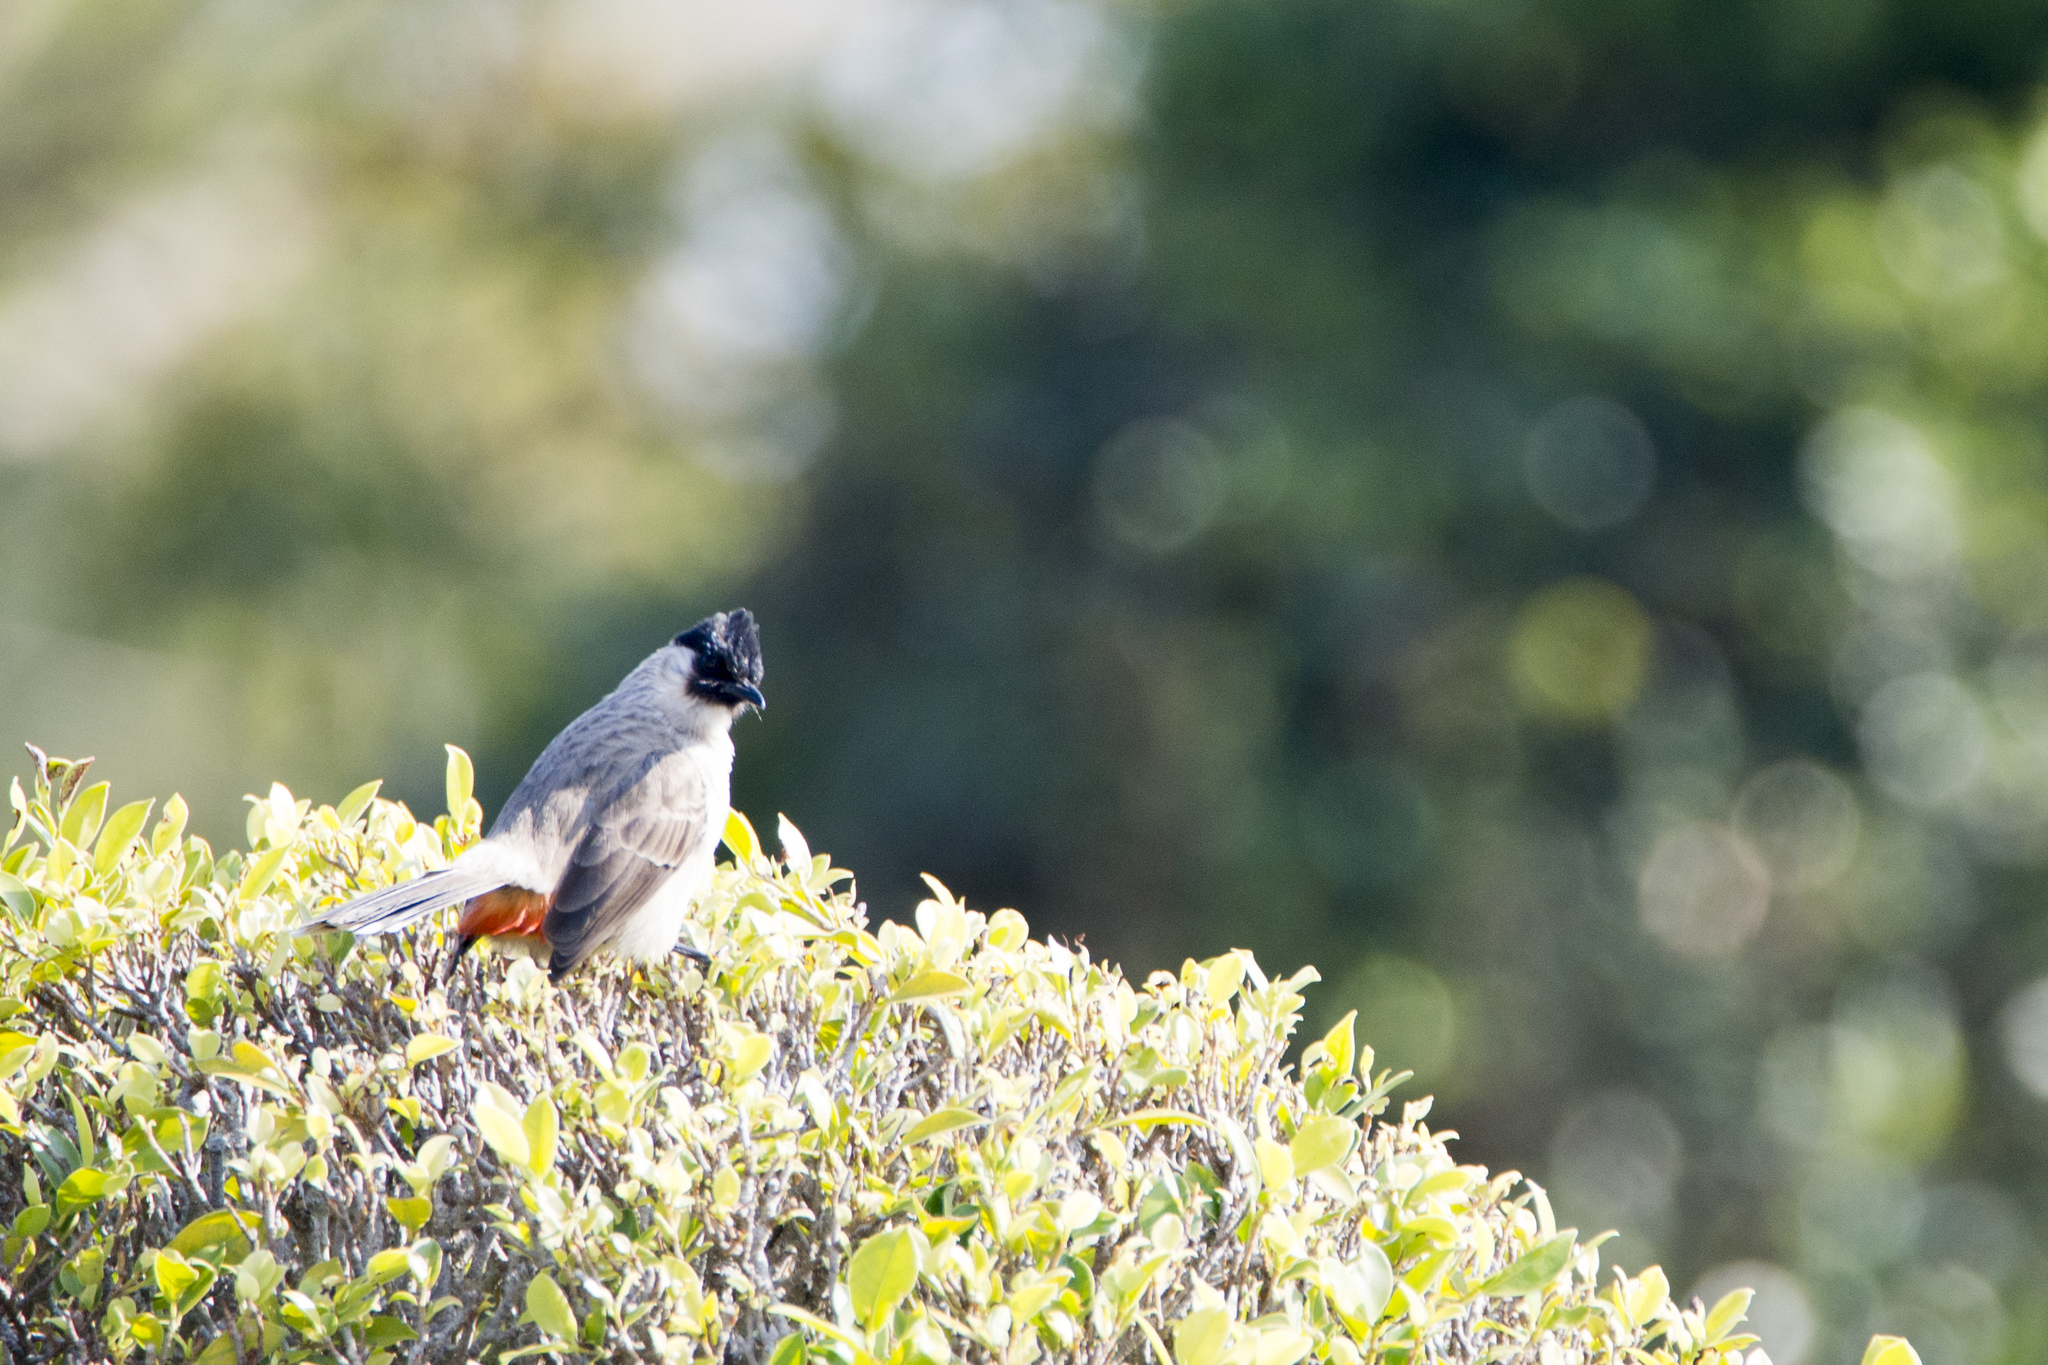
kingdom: Animalia
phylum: Chordata
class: Aves
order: Passeriformes
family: Pycnonotidae
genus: Pycnonotus
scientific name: Pycnonotus aurigaster
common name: Sooty-headed bulbul
